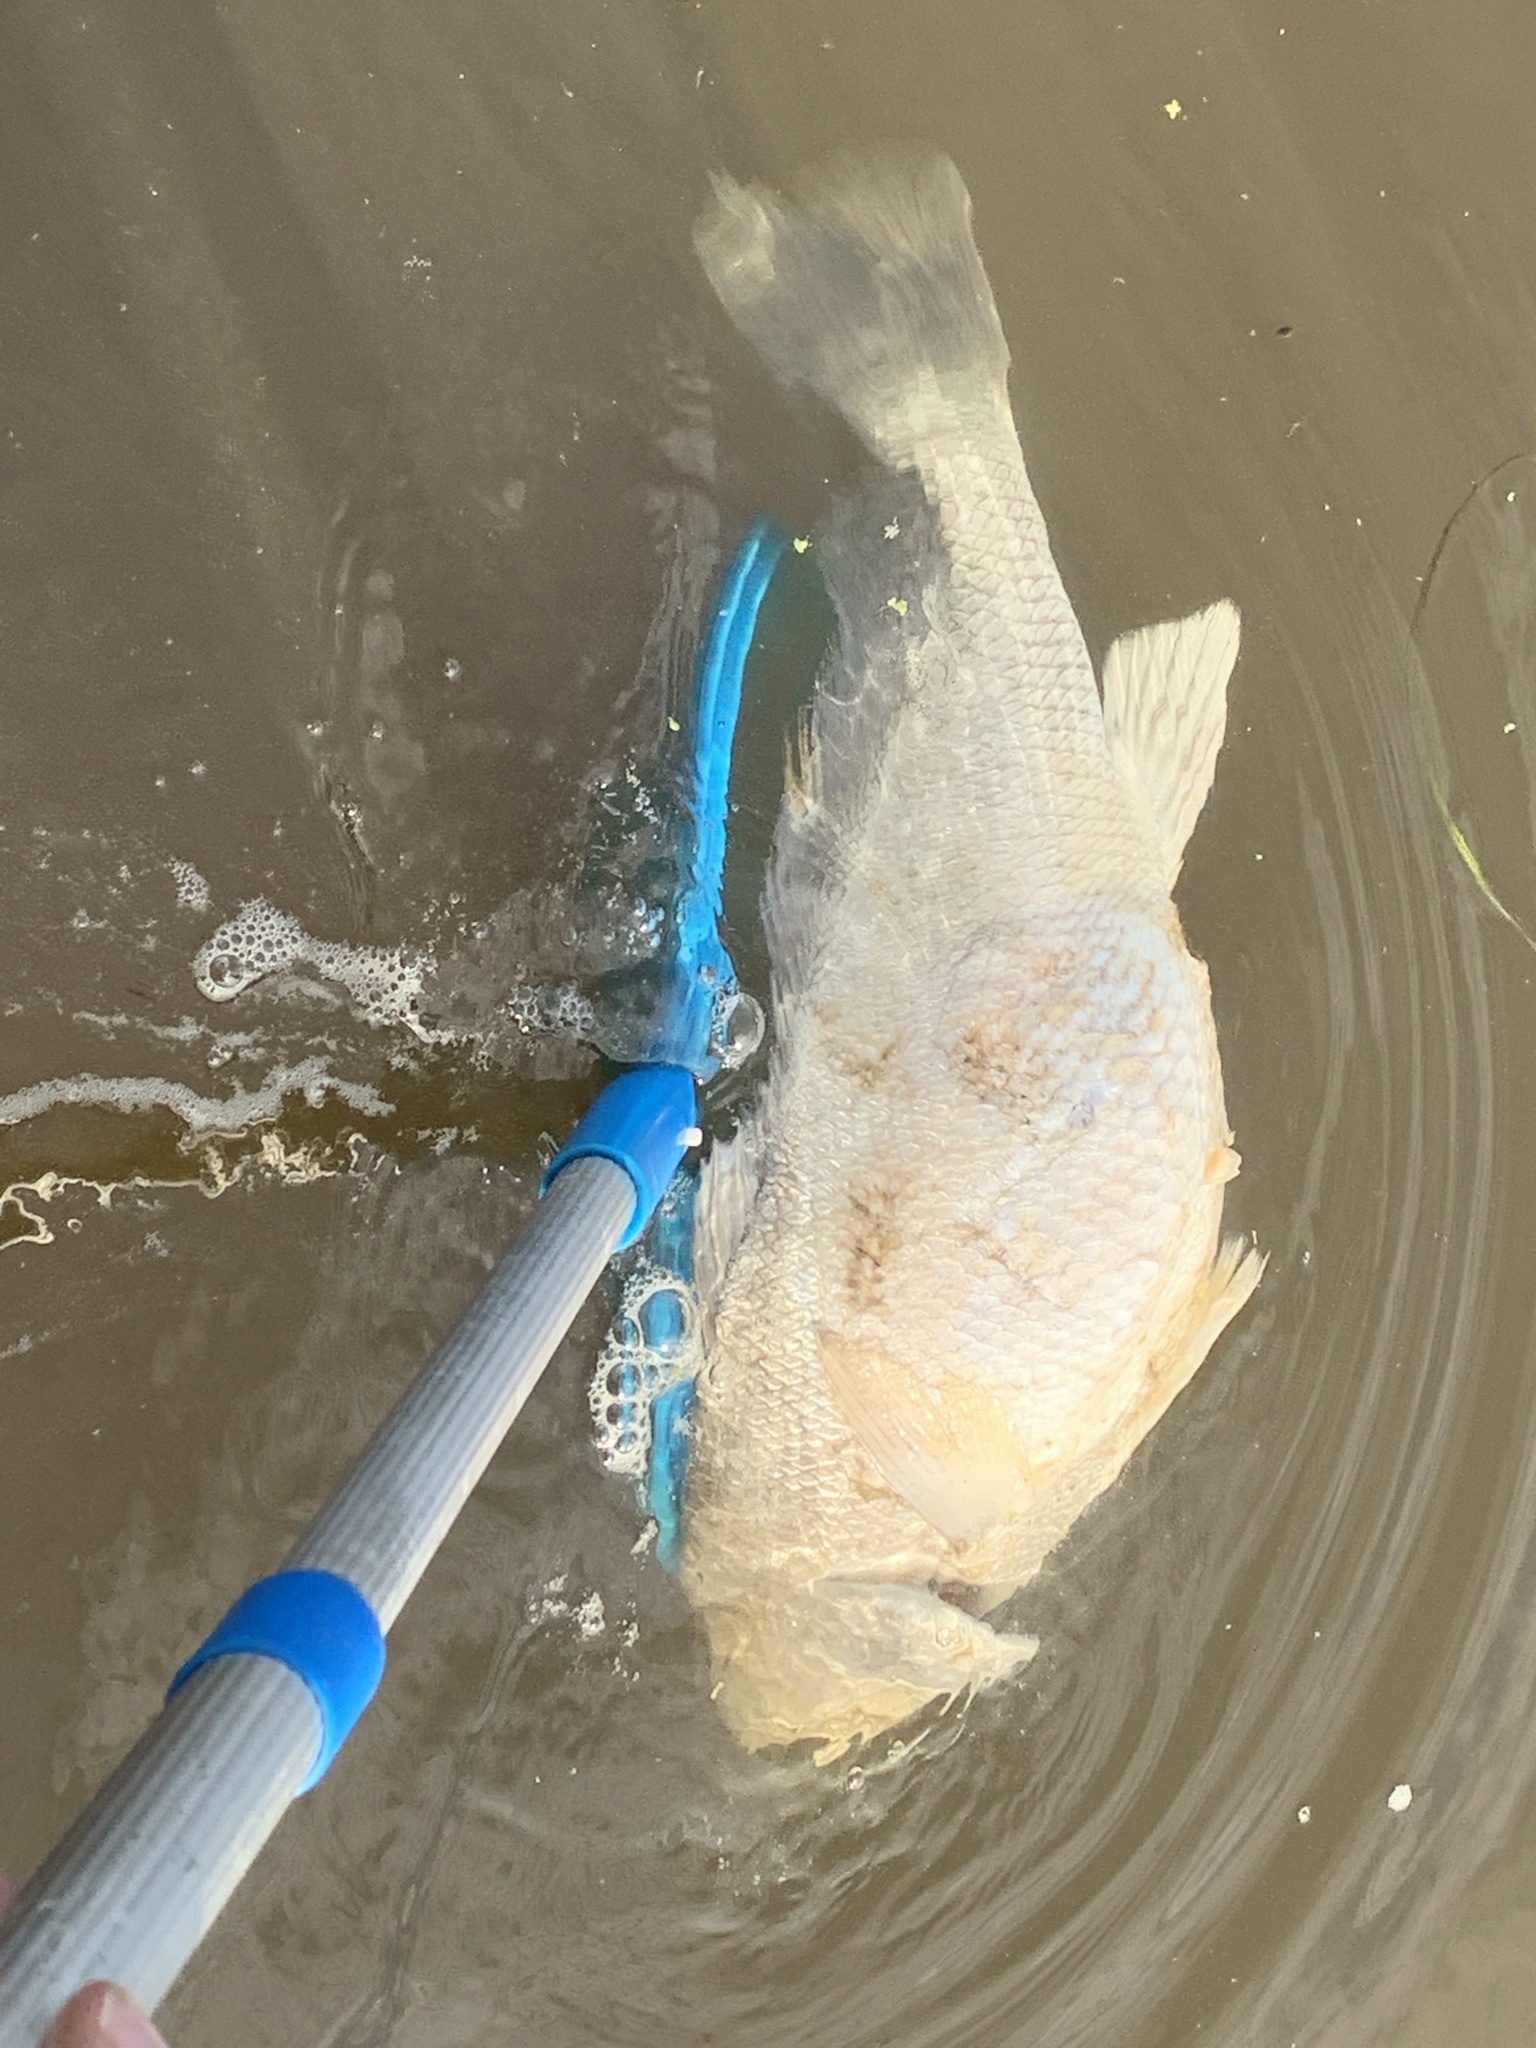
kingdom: Animalia
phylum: Chordata
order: Perciformes
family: Sciaenidae
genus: Aplodinotus
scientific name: Aplodinotus grunniens
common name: Freshwater drum
